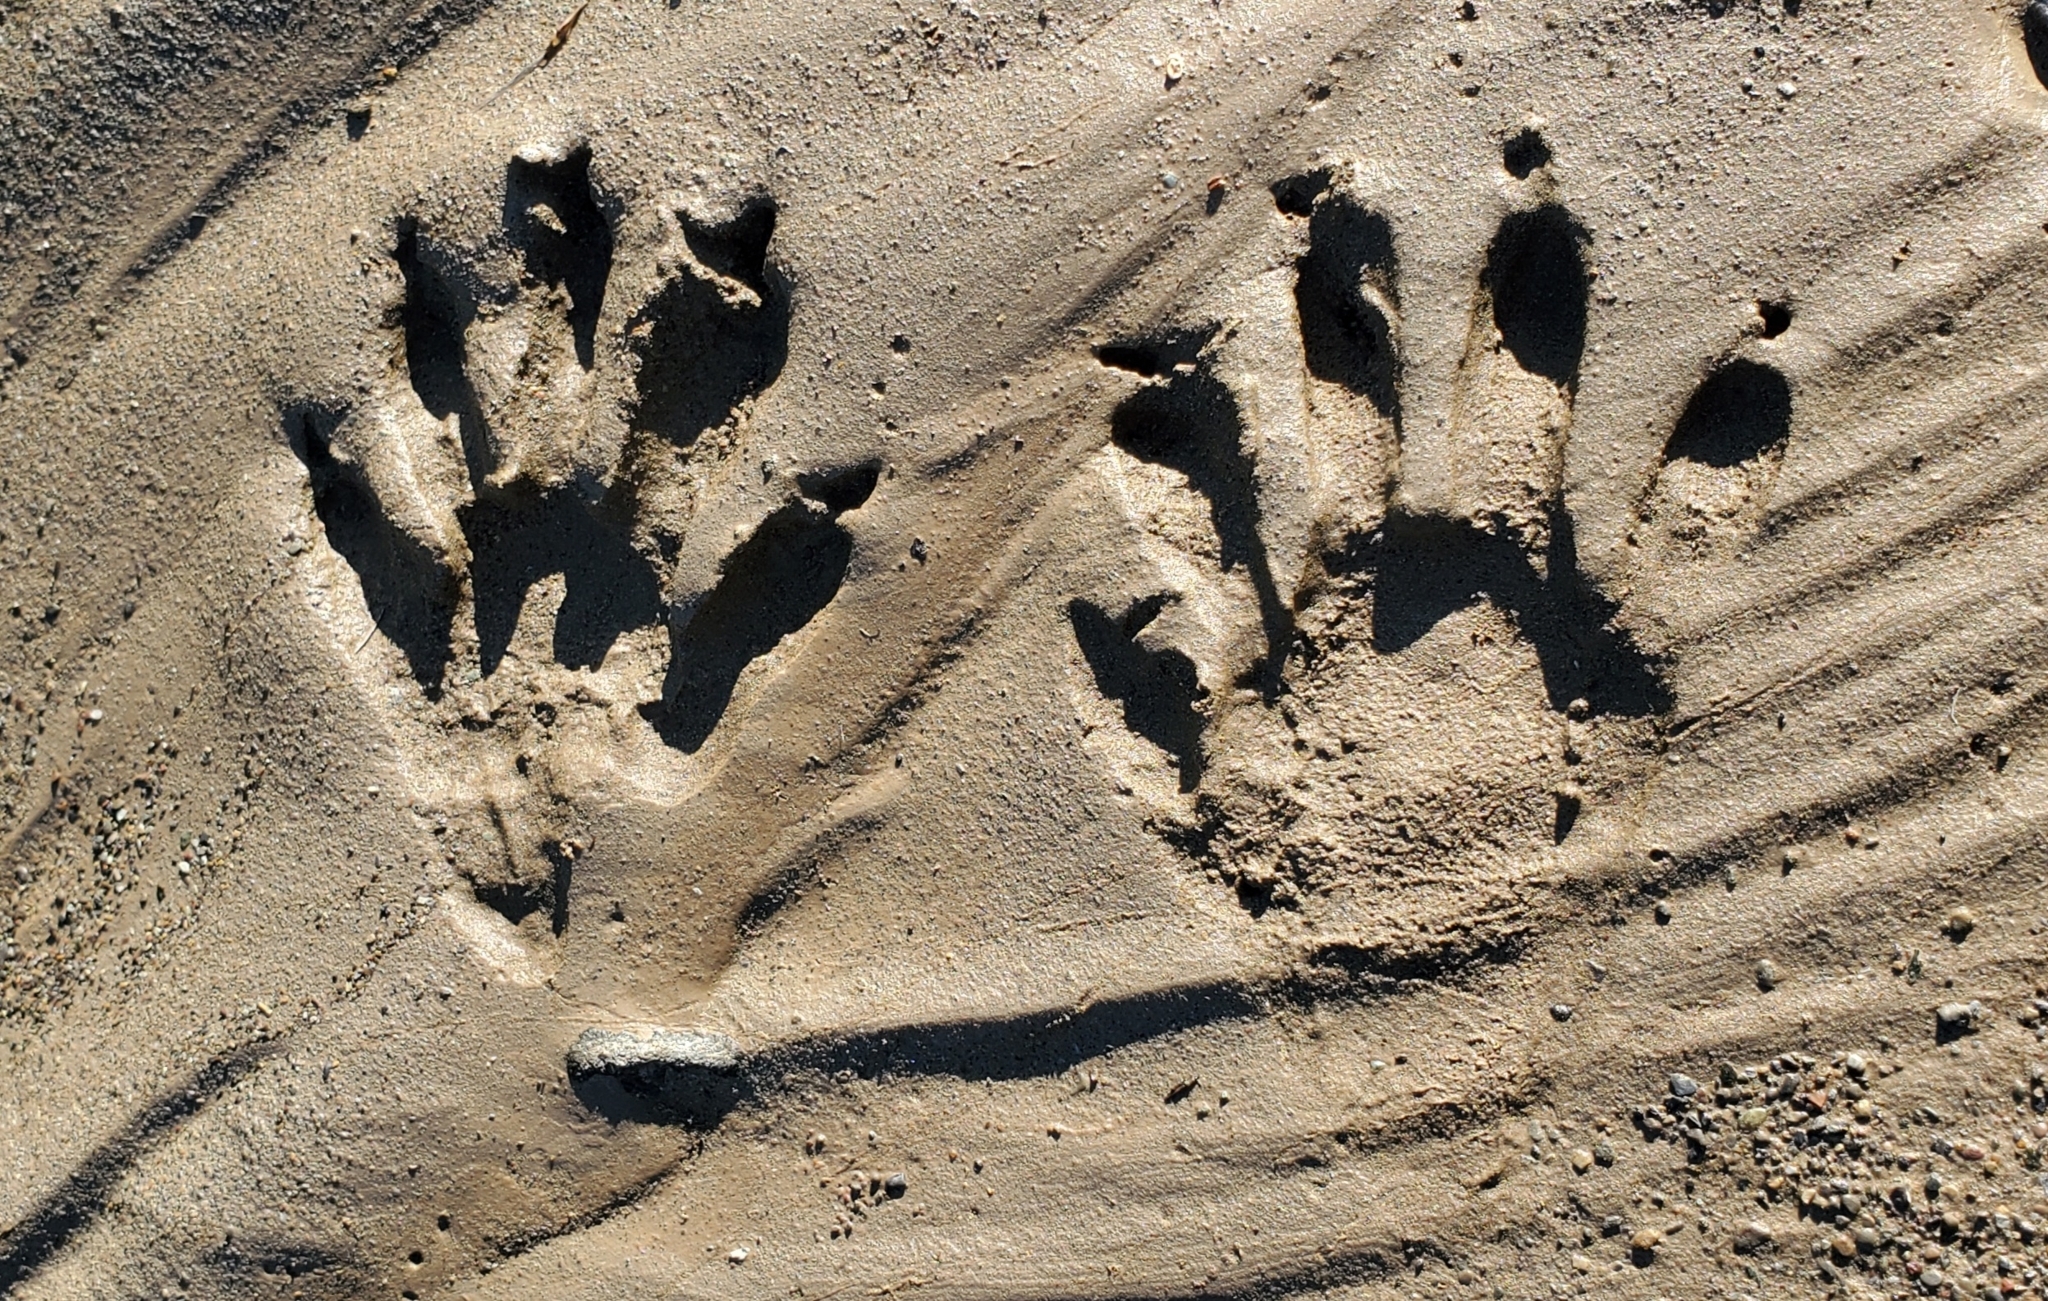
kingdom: Animalia
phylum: Chordata
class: Mammalia
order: Carnivora
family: Procyonidae
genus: Procyon
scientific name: Procyon lotor
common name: Raccoon
